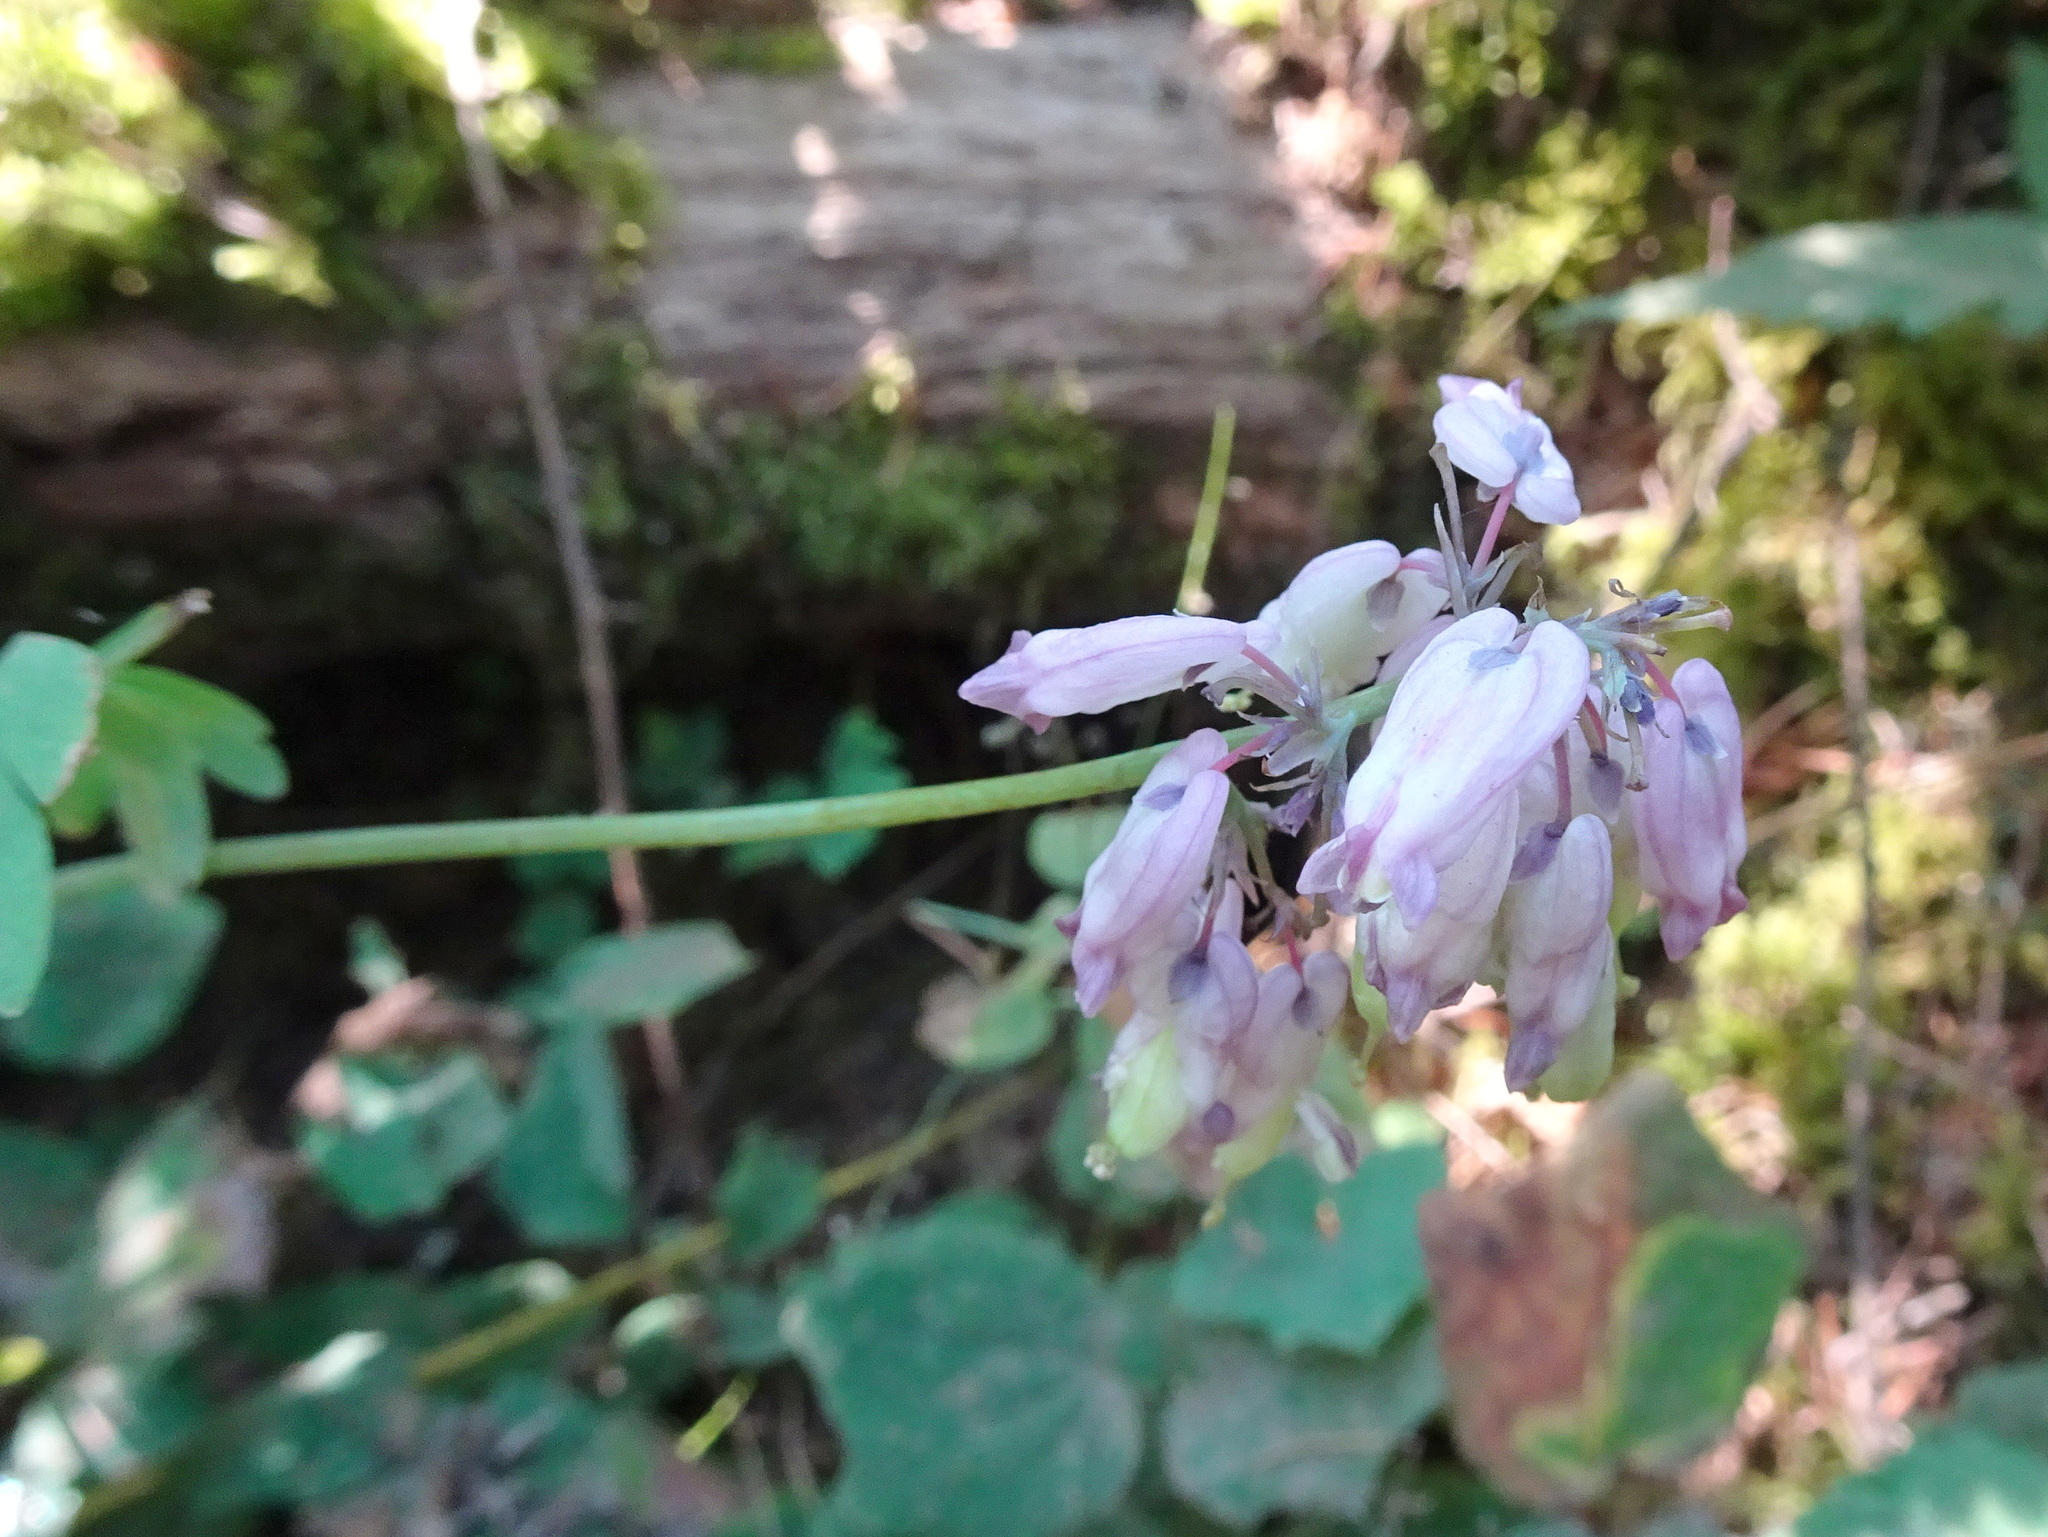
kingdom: Plantae
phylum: Tracheophyta
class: Magnoliopsida
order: Ranunculales
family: Papaveraceae
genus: Dicentra
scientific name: Dicentra formosa
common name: Bleeding-heart
